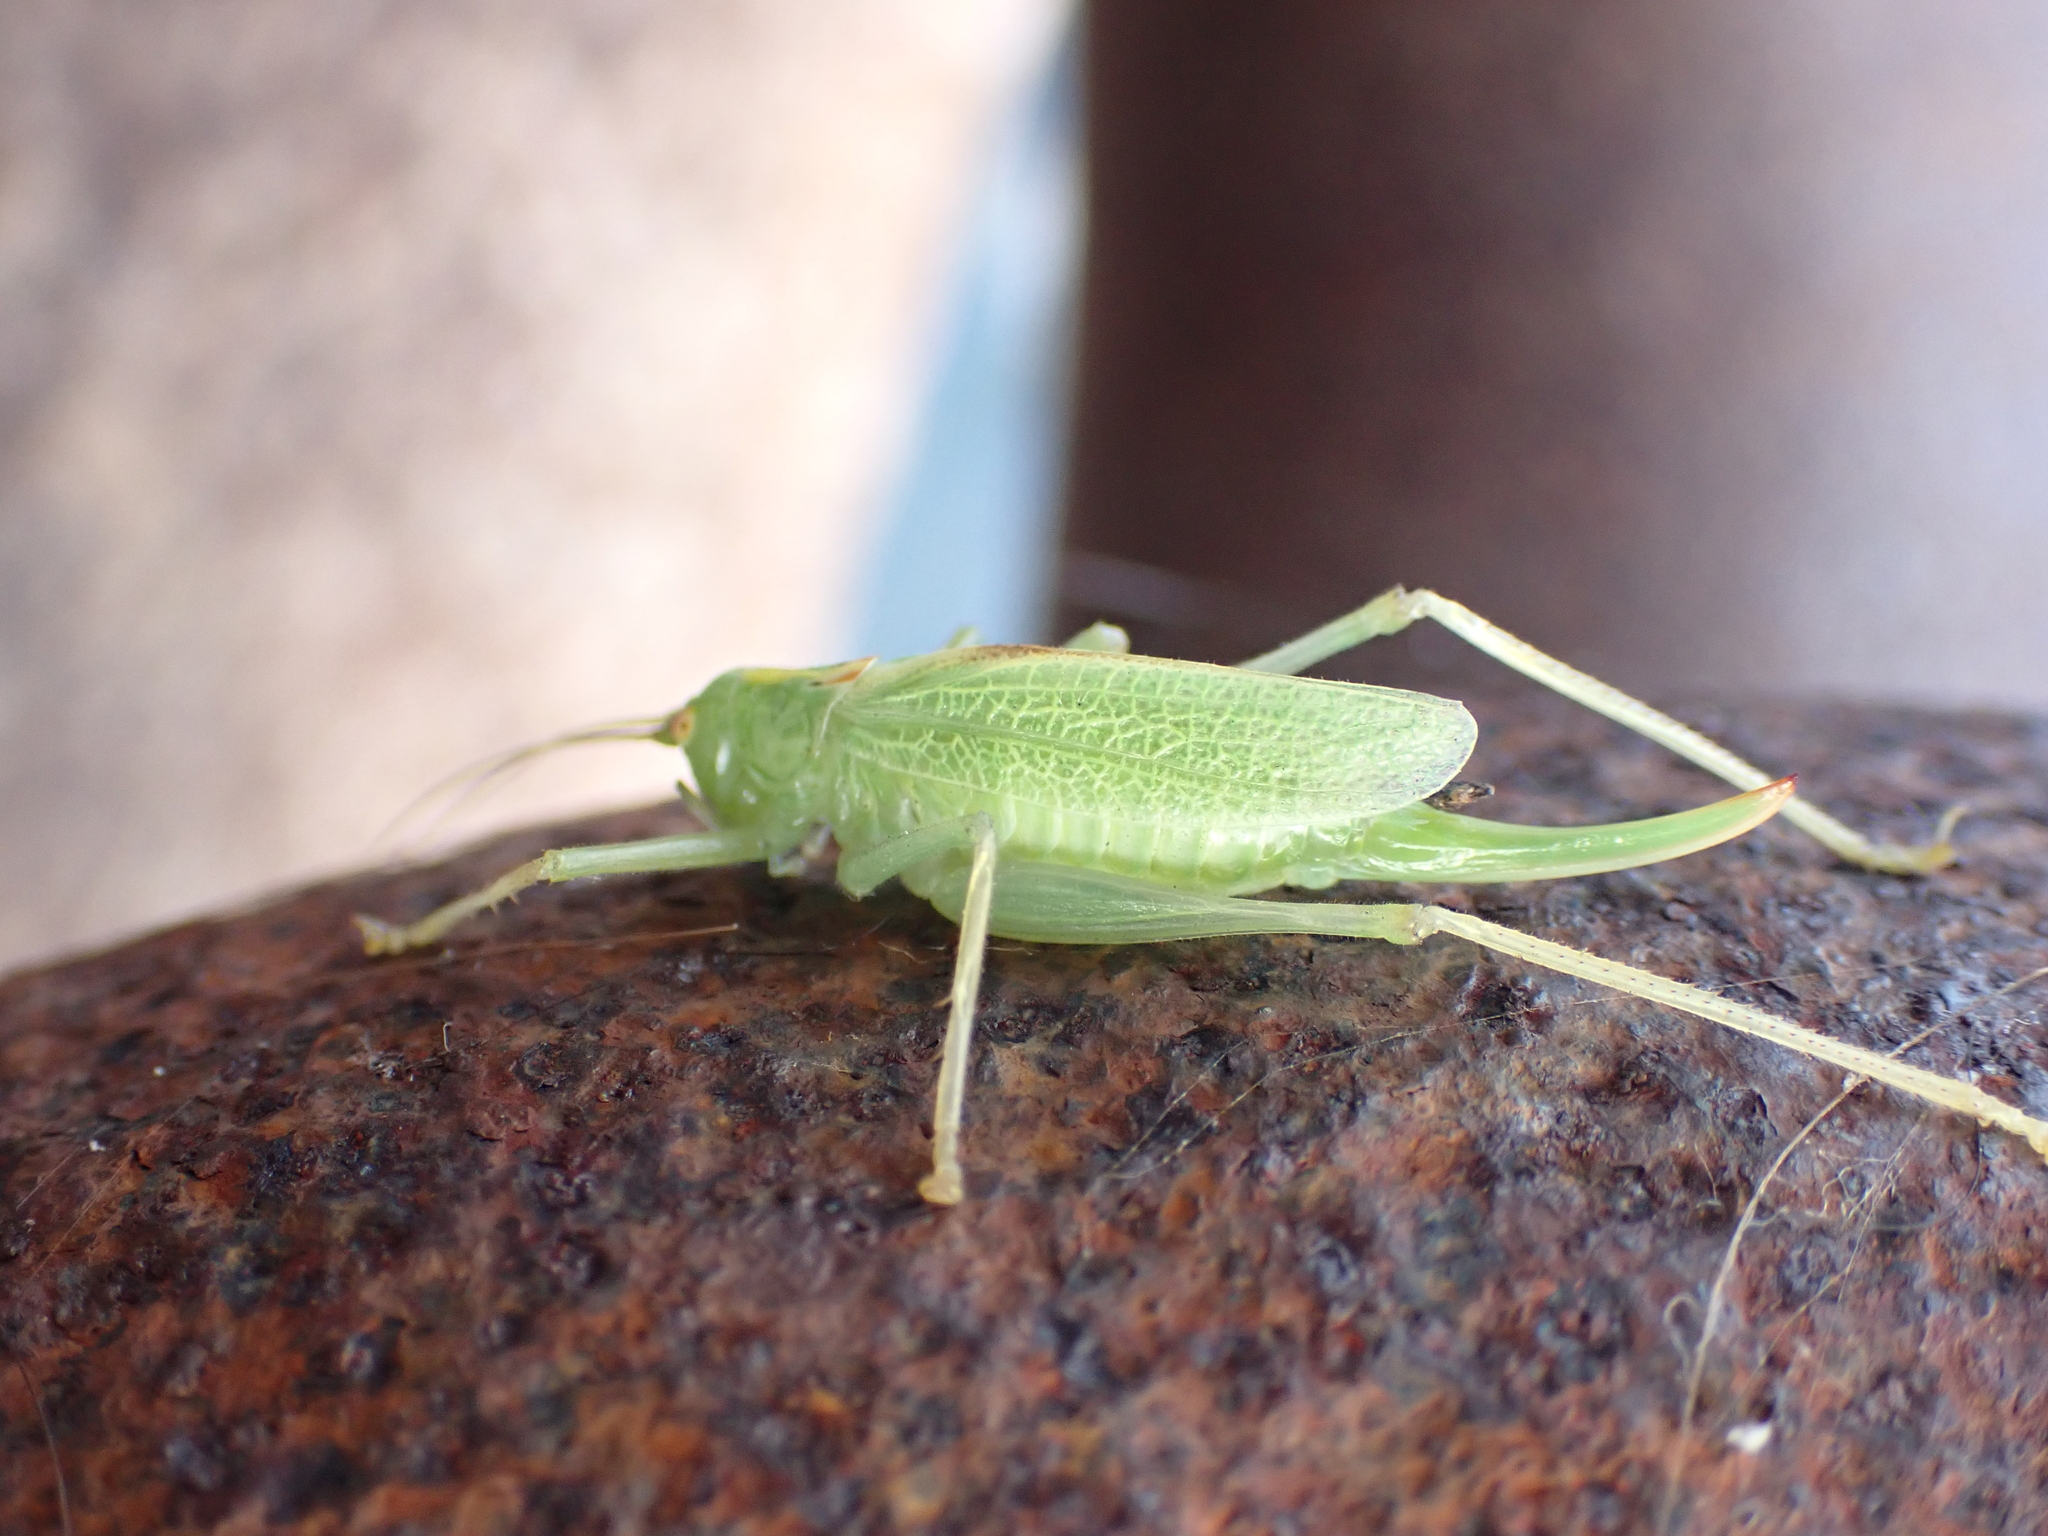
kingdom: Animalia
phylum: Arthropoda
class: Insecta
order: Orthoptera
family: Tettigoniidae
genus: Meconema
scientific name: Meconema thalassinum
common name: Oak bush-cricket
